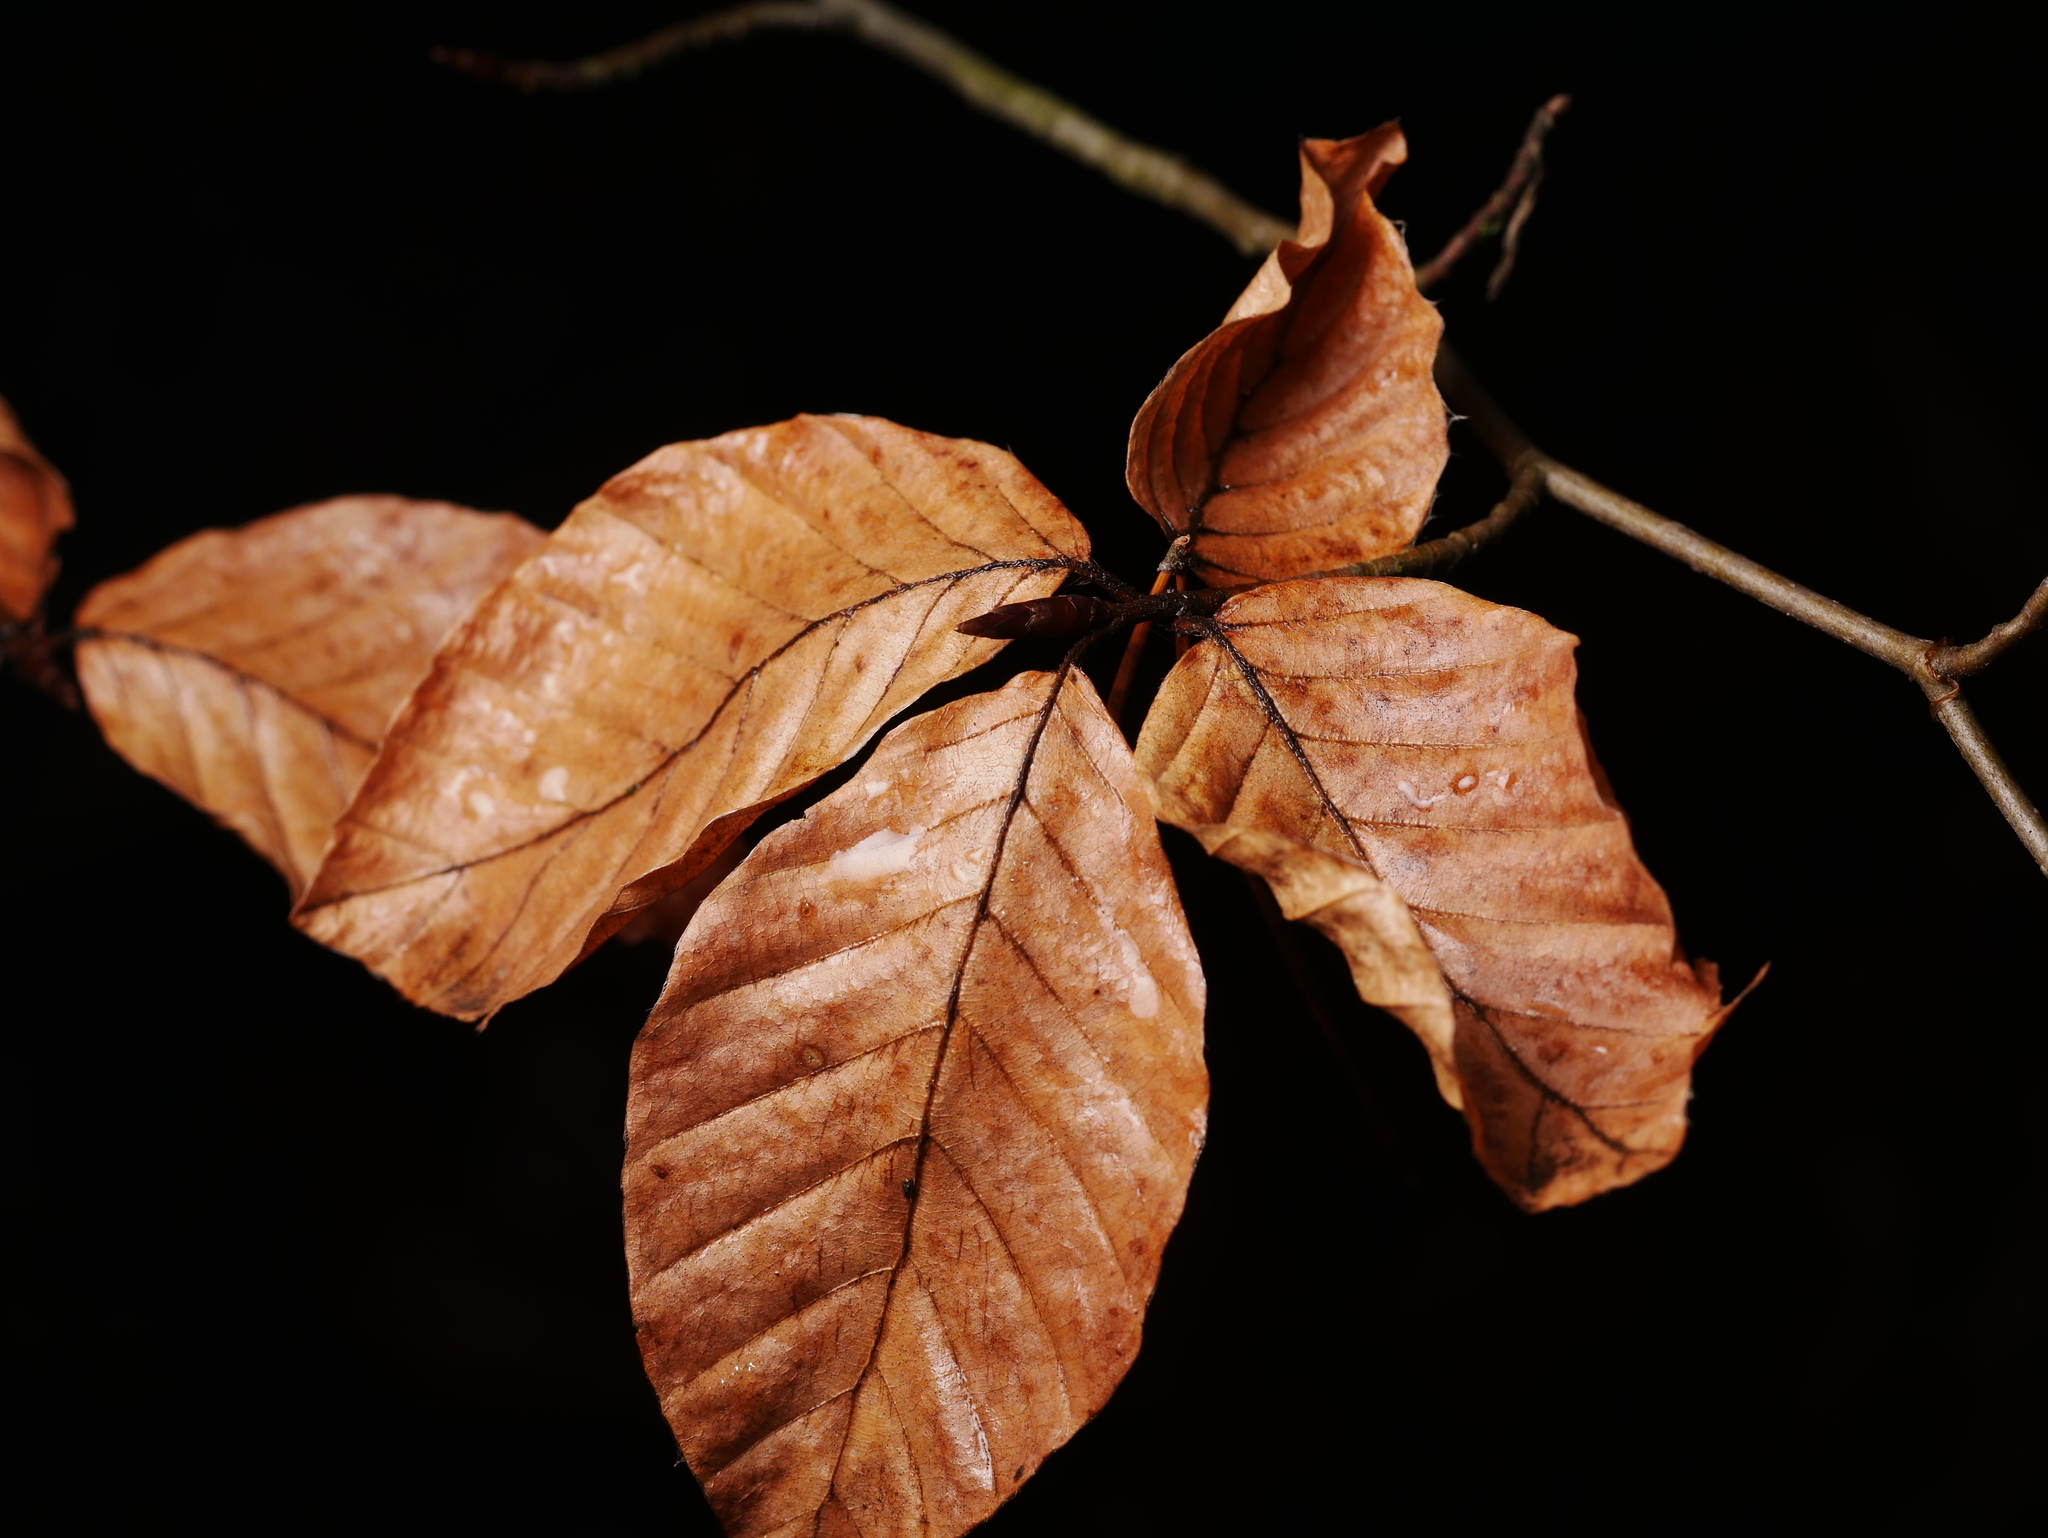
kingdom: Plantae
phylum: Tracheophyta
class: Magnoliopsida
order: Fagales
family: Fagaceae
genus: Fagus
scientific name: Fagus sylvatica
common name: Beech
